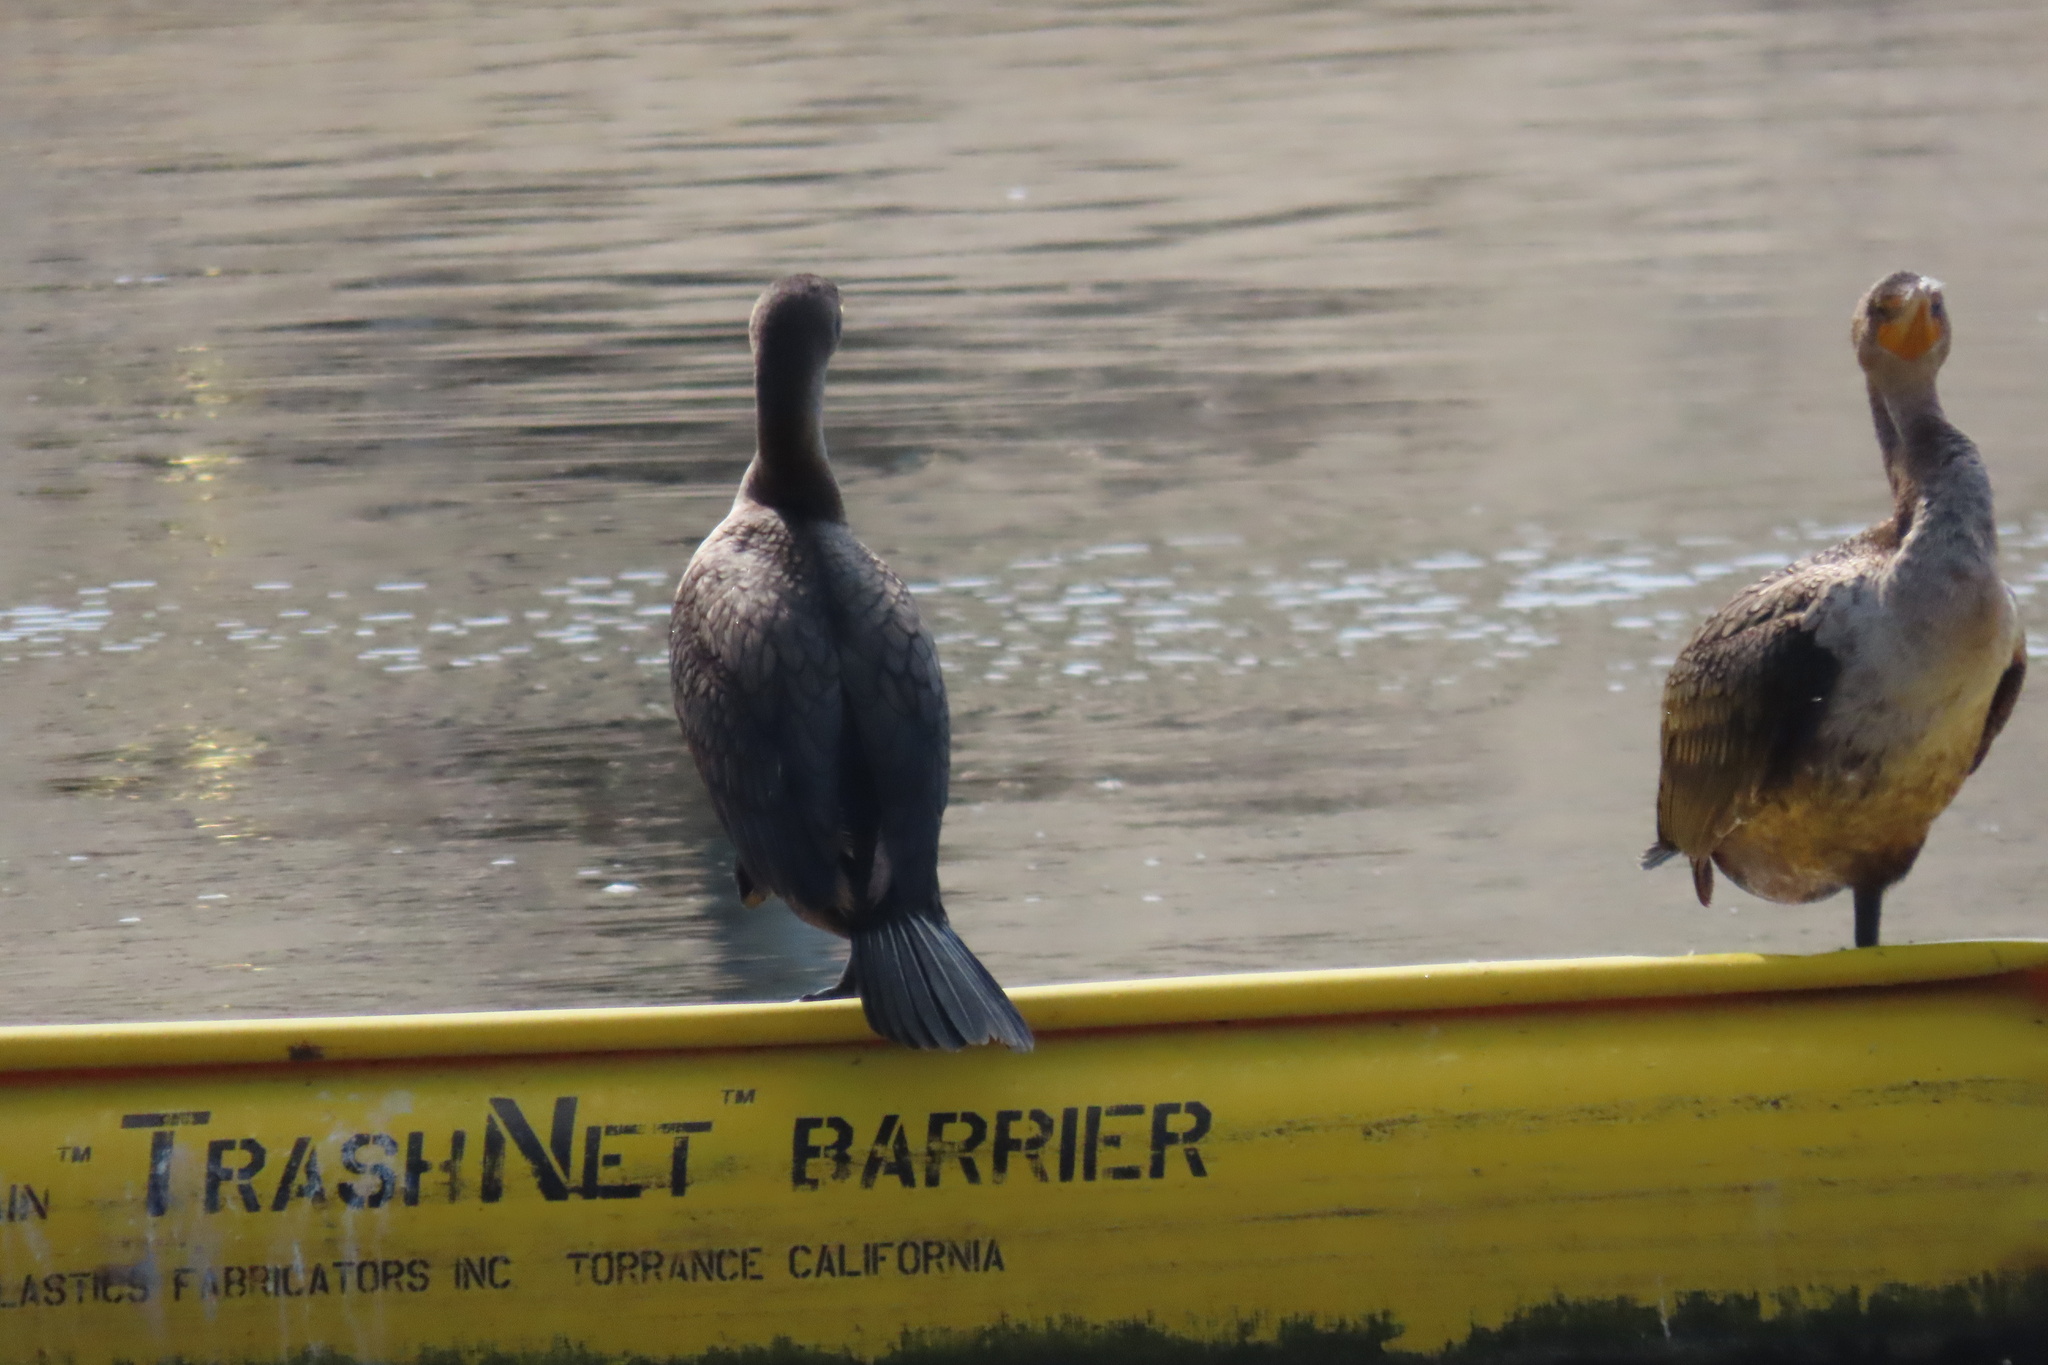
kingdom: Animalia
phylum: Chordata
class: Aves
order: Suliformes
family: Phalacrocoracidae
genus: Phalacrocorax
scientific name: Phalacrocorax auritus
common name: Double-crested cormorant
